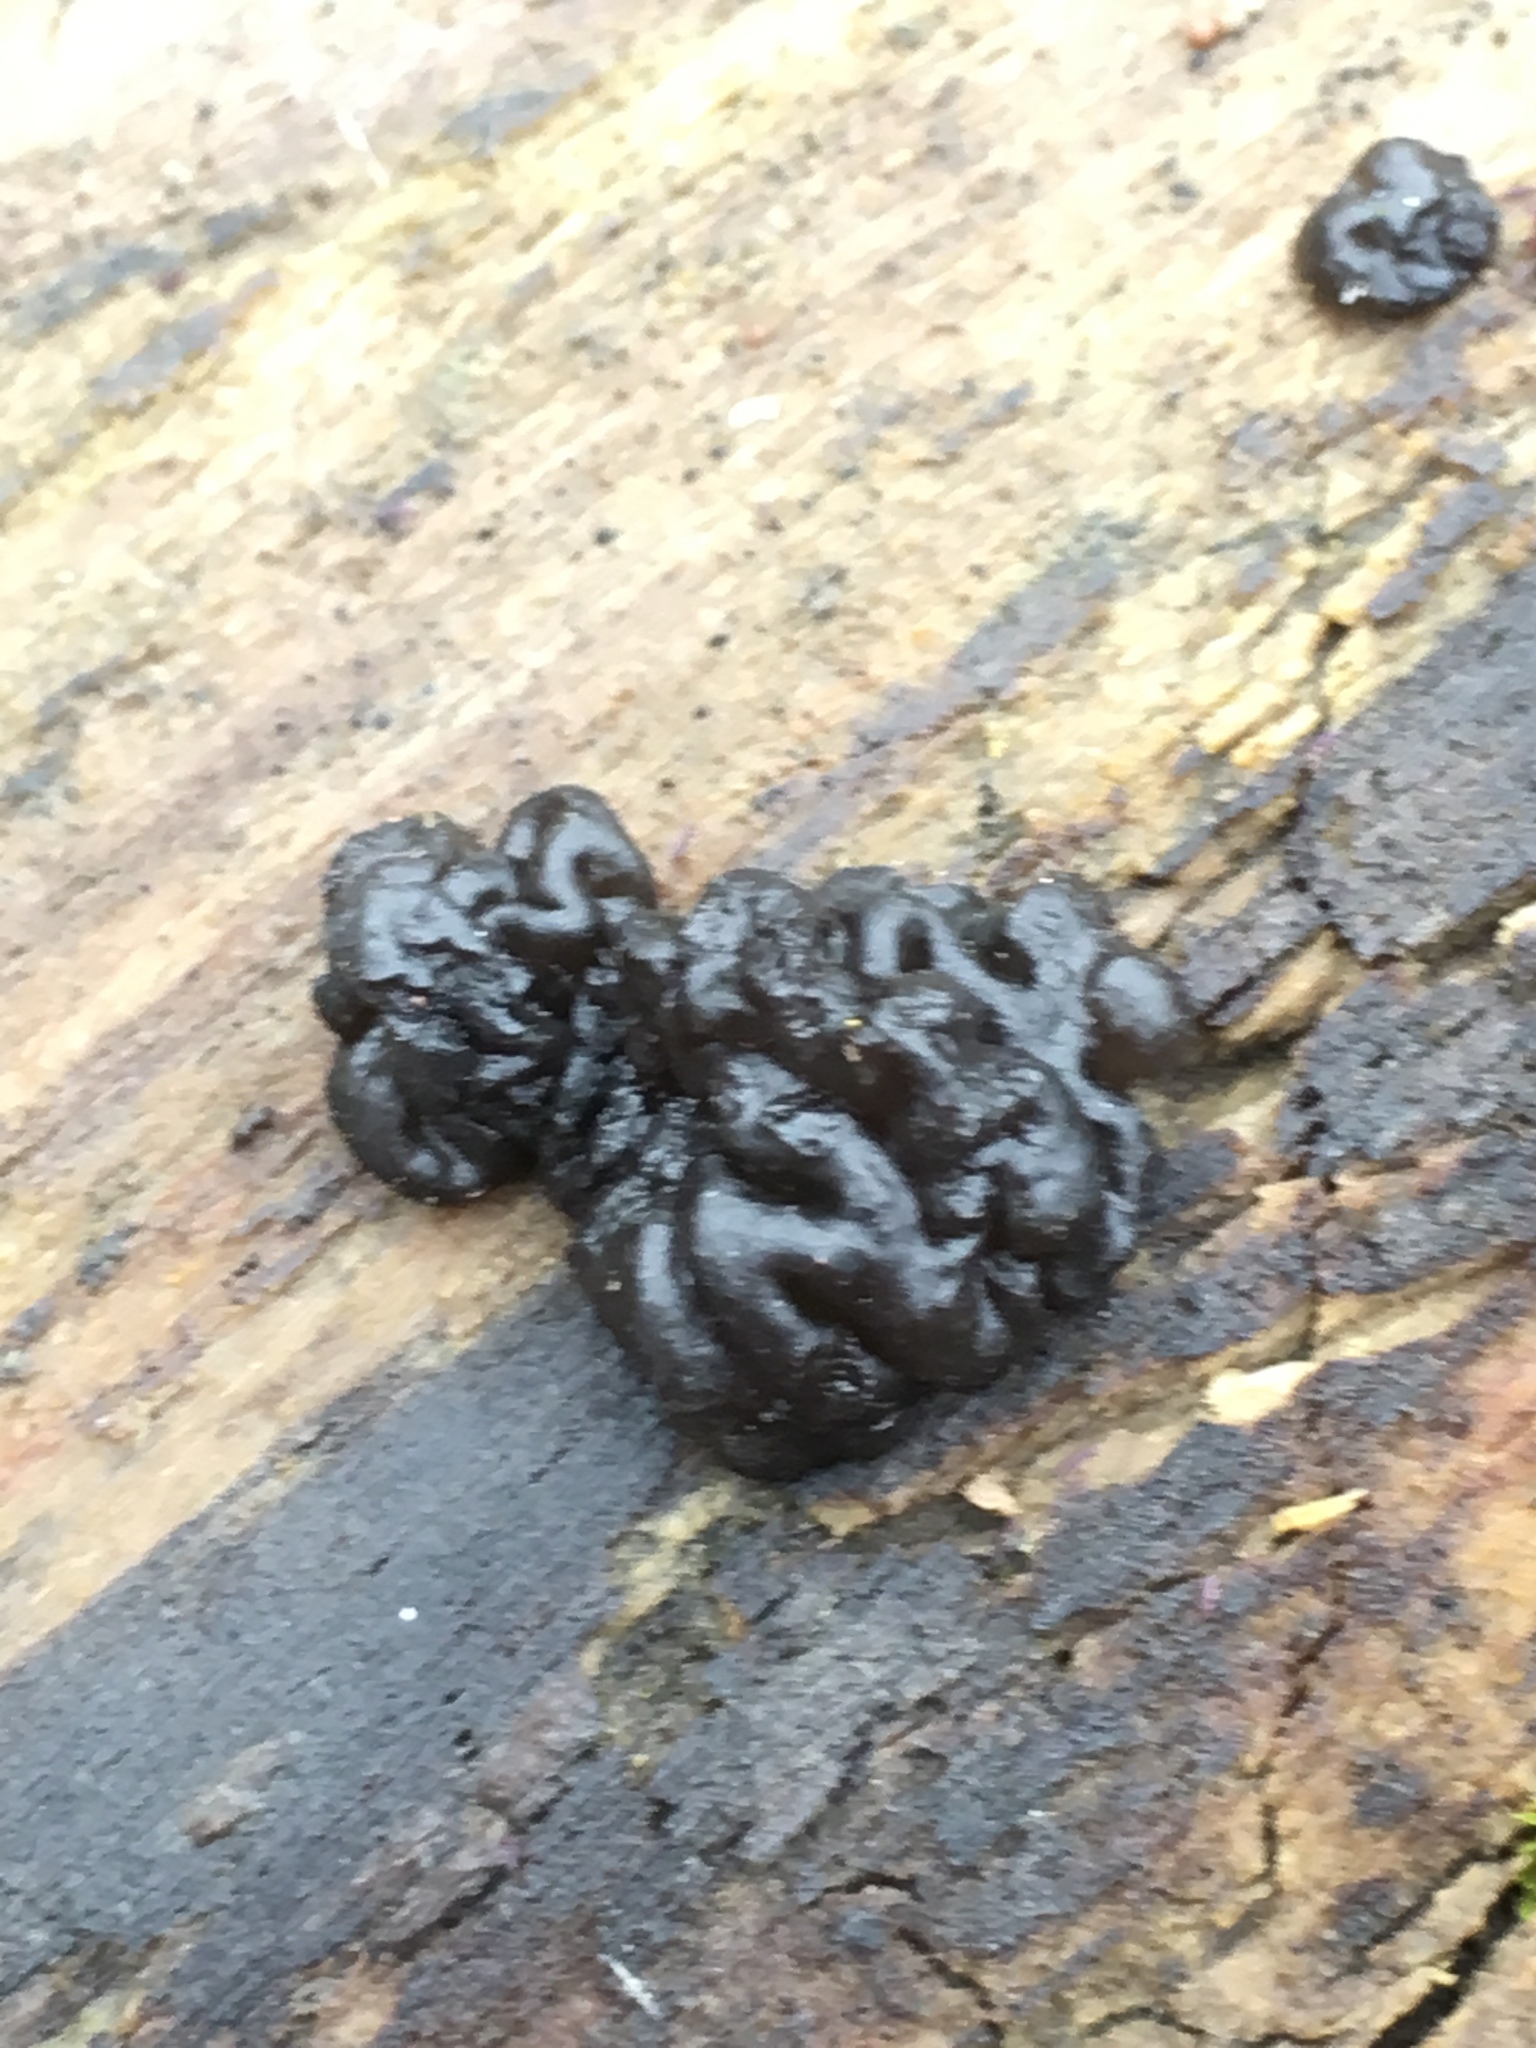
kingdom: Fungi
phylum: Basidiomycota
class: Agaricomycetes
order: Auriculariales
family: Auriculariaceae
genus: Exidia
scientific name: Exidia glandulosa
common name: Witches' butter
